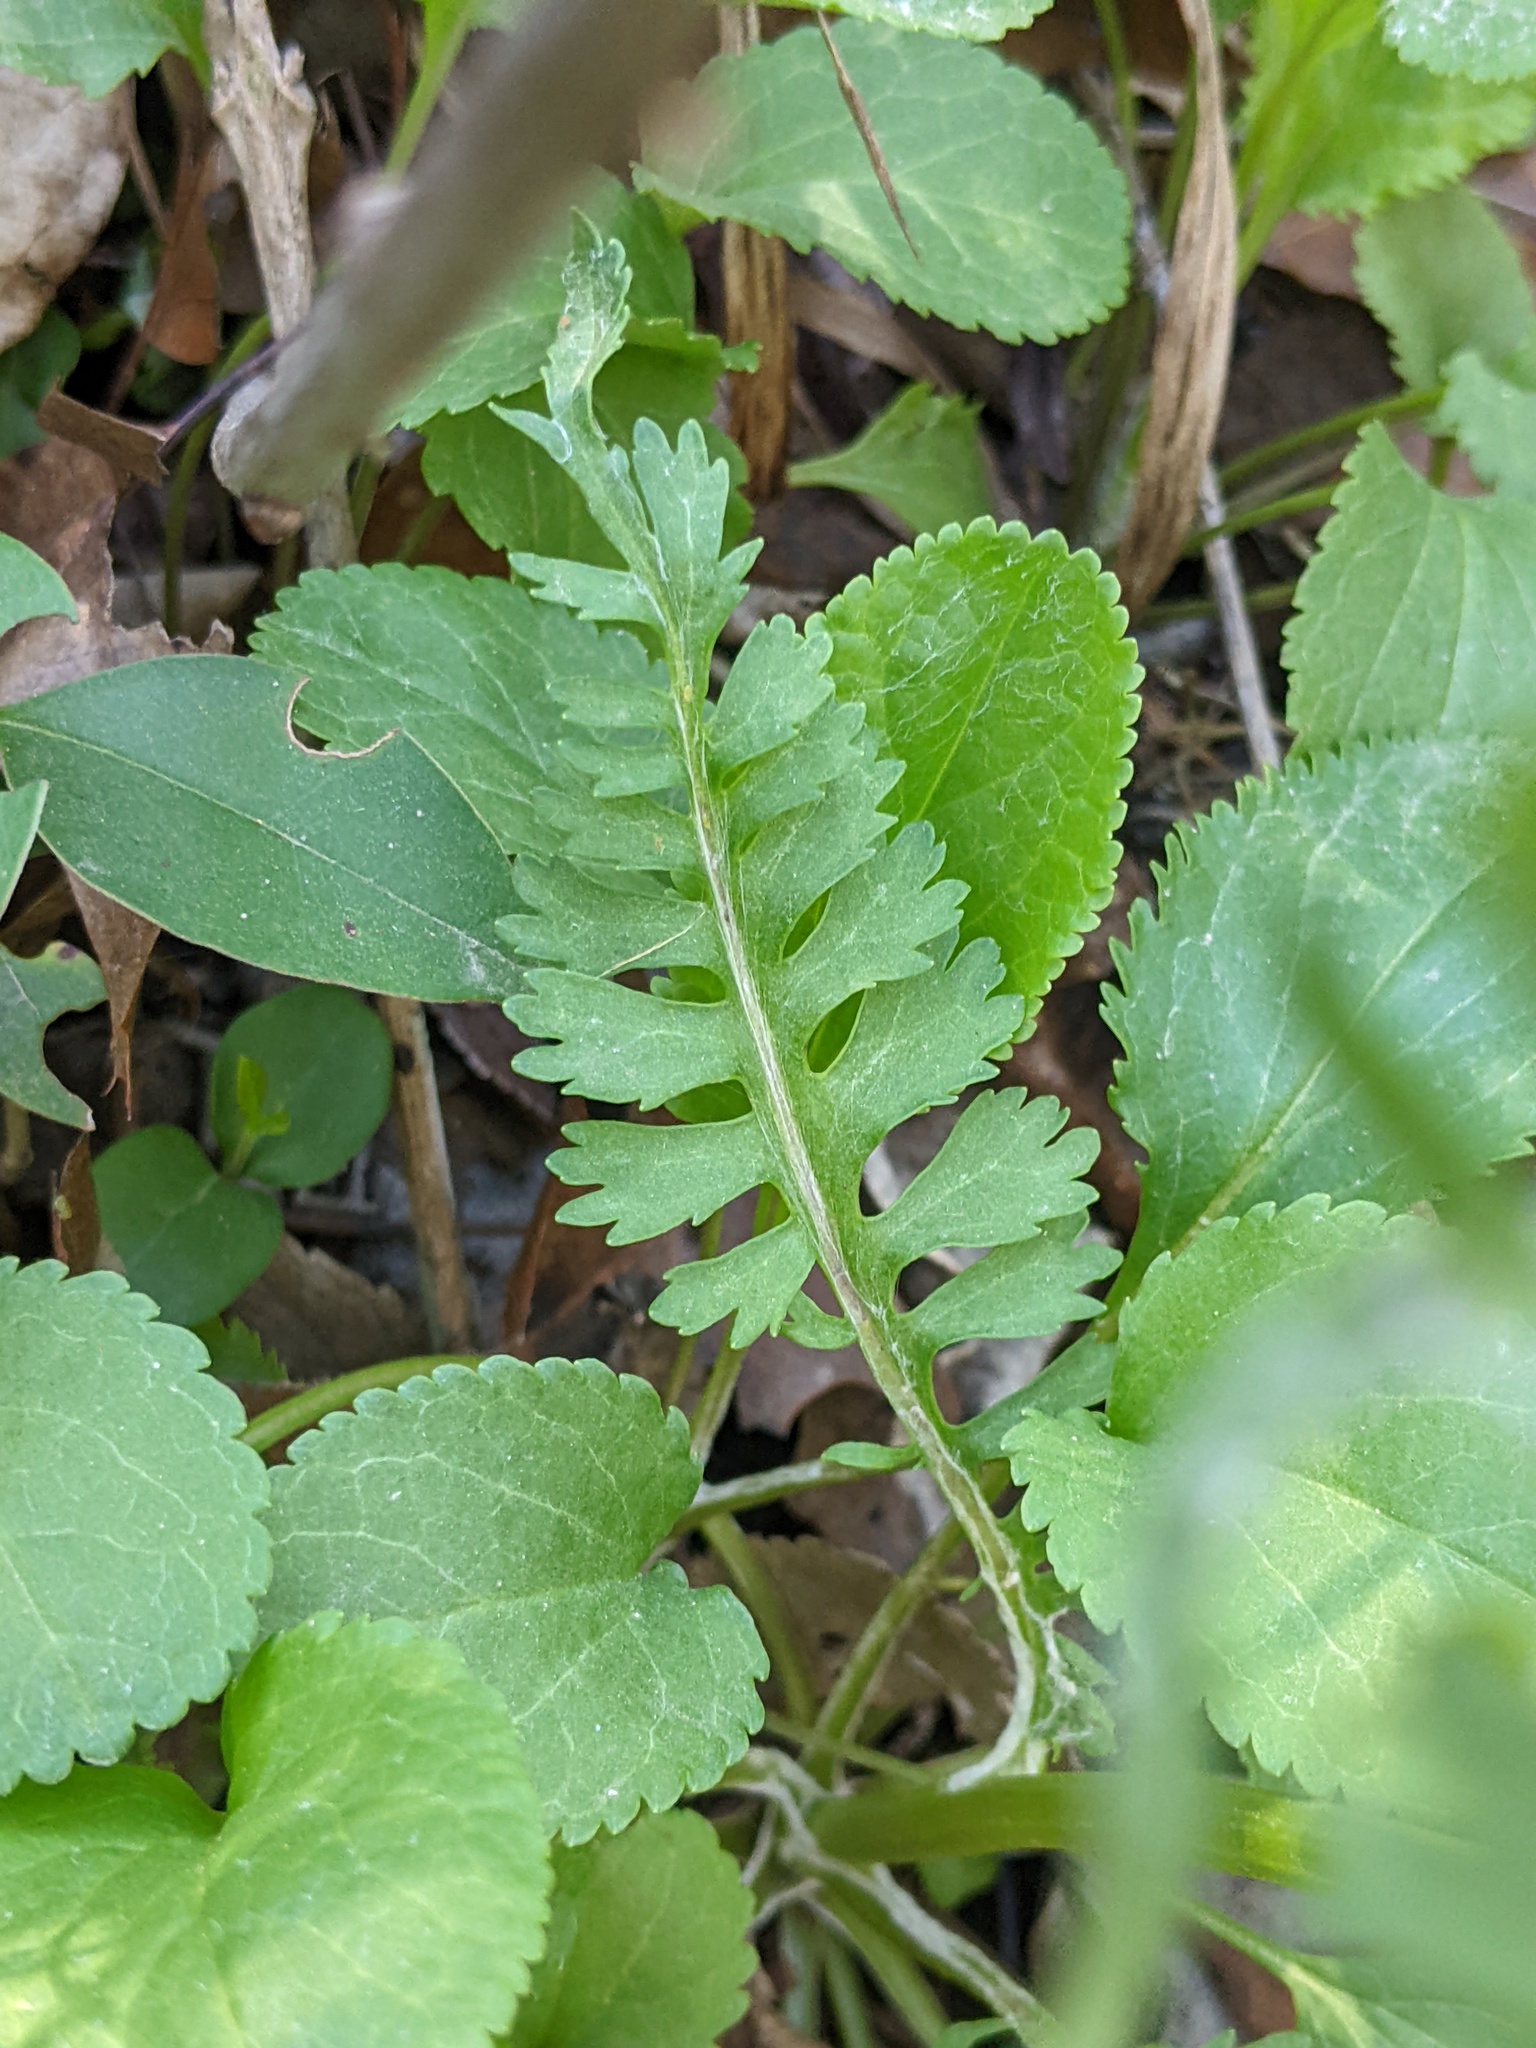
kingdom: Plantae
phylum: Tracheophyta
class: Magnoliopsida
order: Asterales
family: Asteraceae
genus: Packera
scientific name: Packera obovata
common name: Round-leaf ragwort
